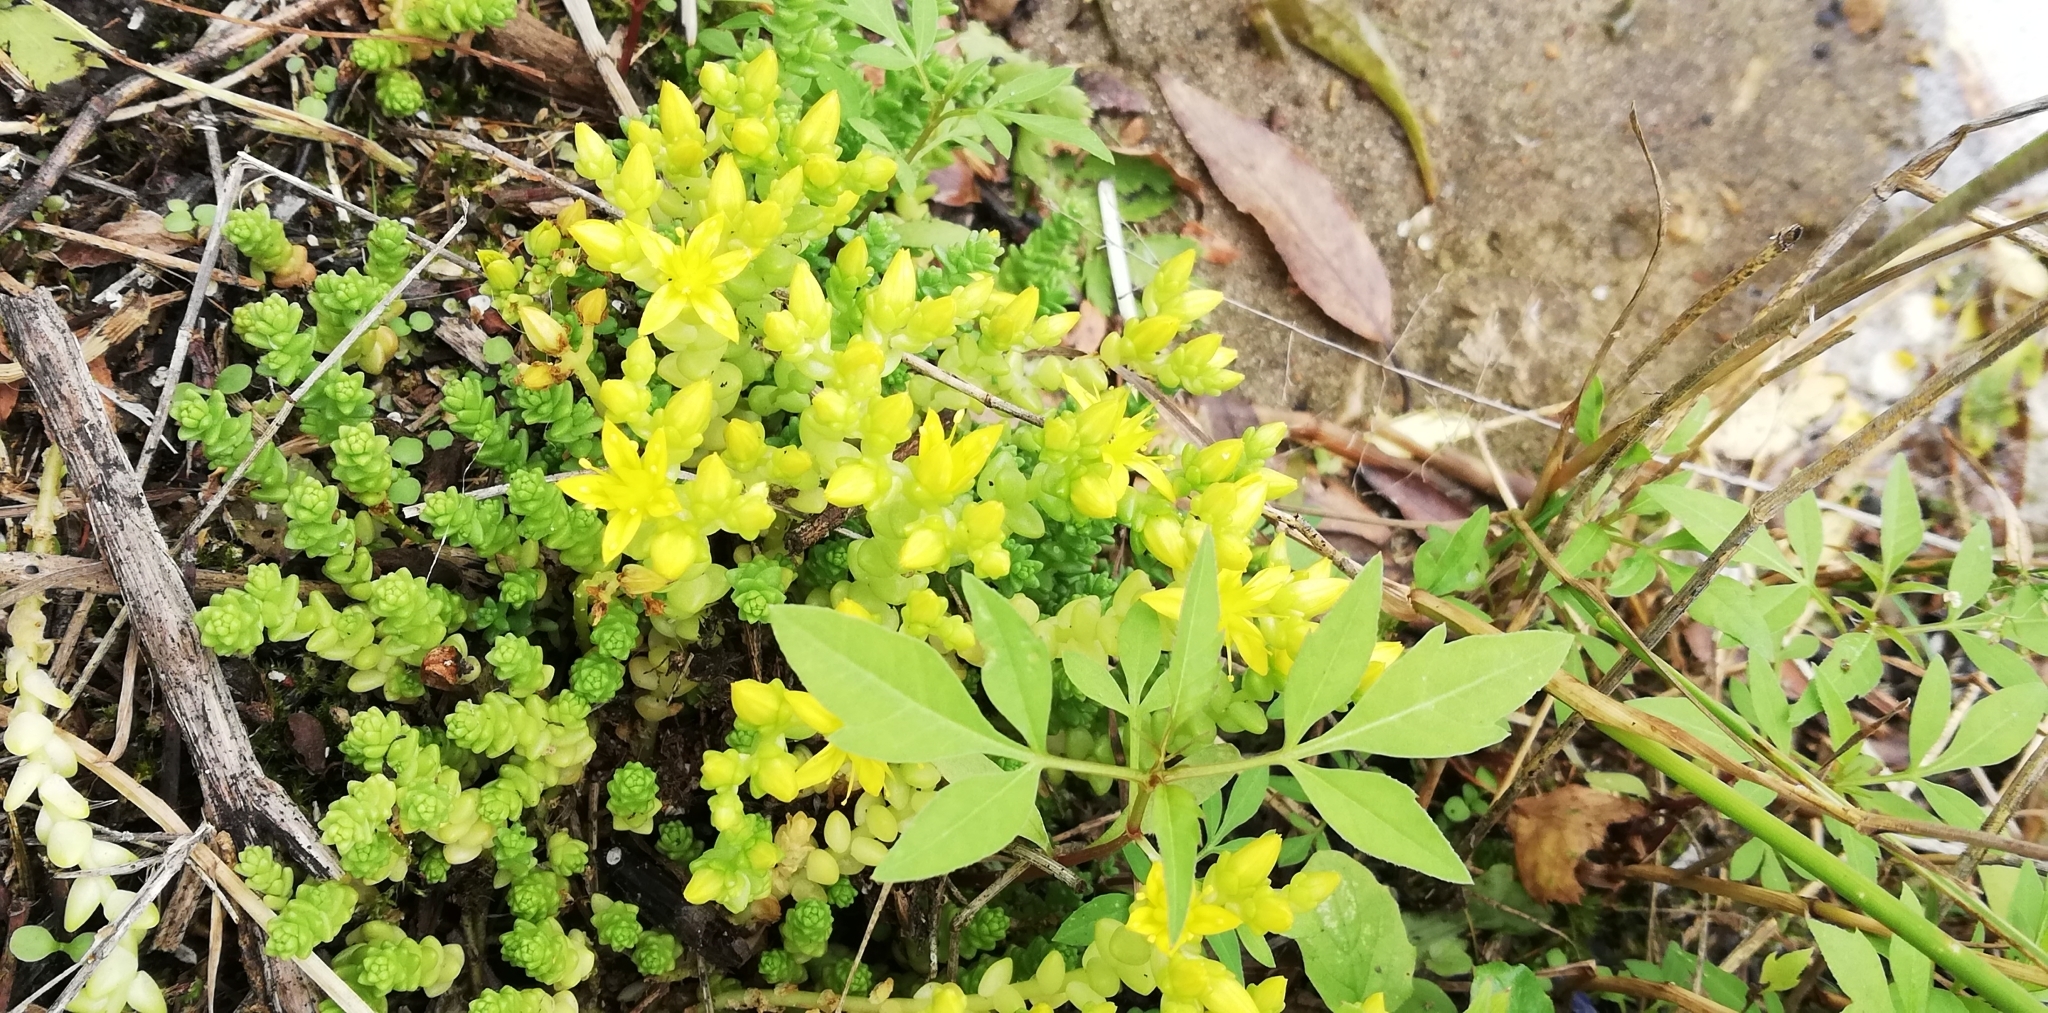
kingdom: Plantae
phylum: Tracheophyta
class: Magnoliopsida
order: Saxifragales
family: Crassulaceae
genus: Sedum
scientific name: Sedum acre
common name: Biting stonecrop
